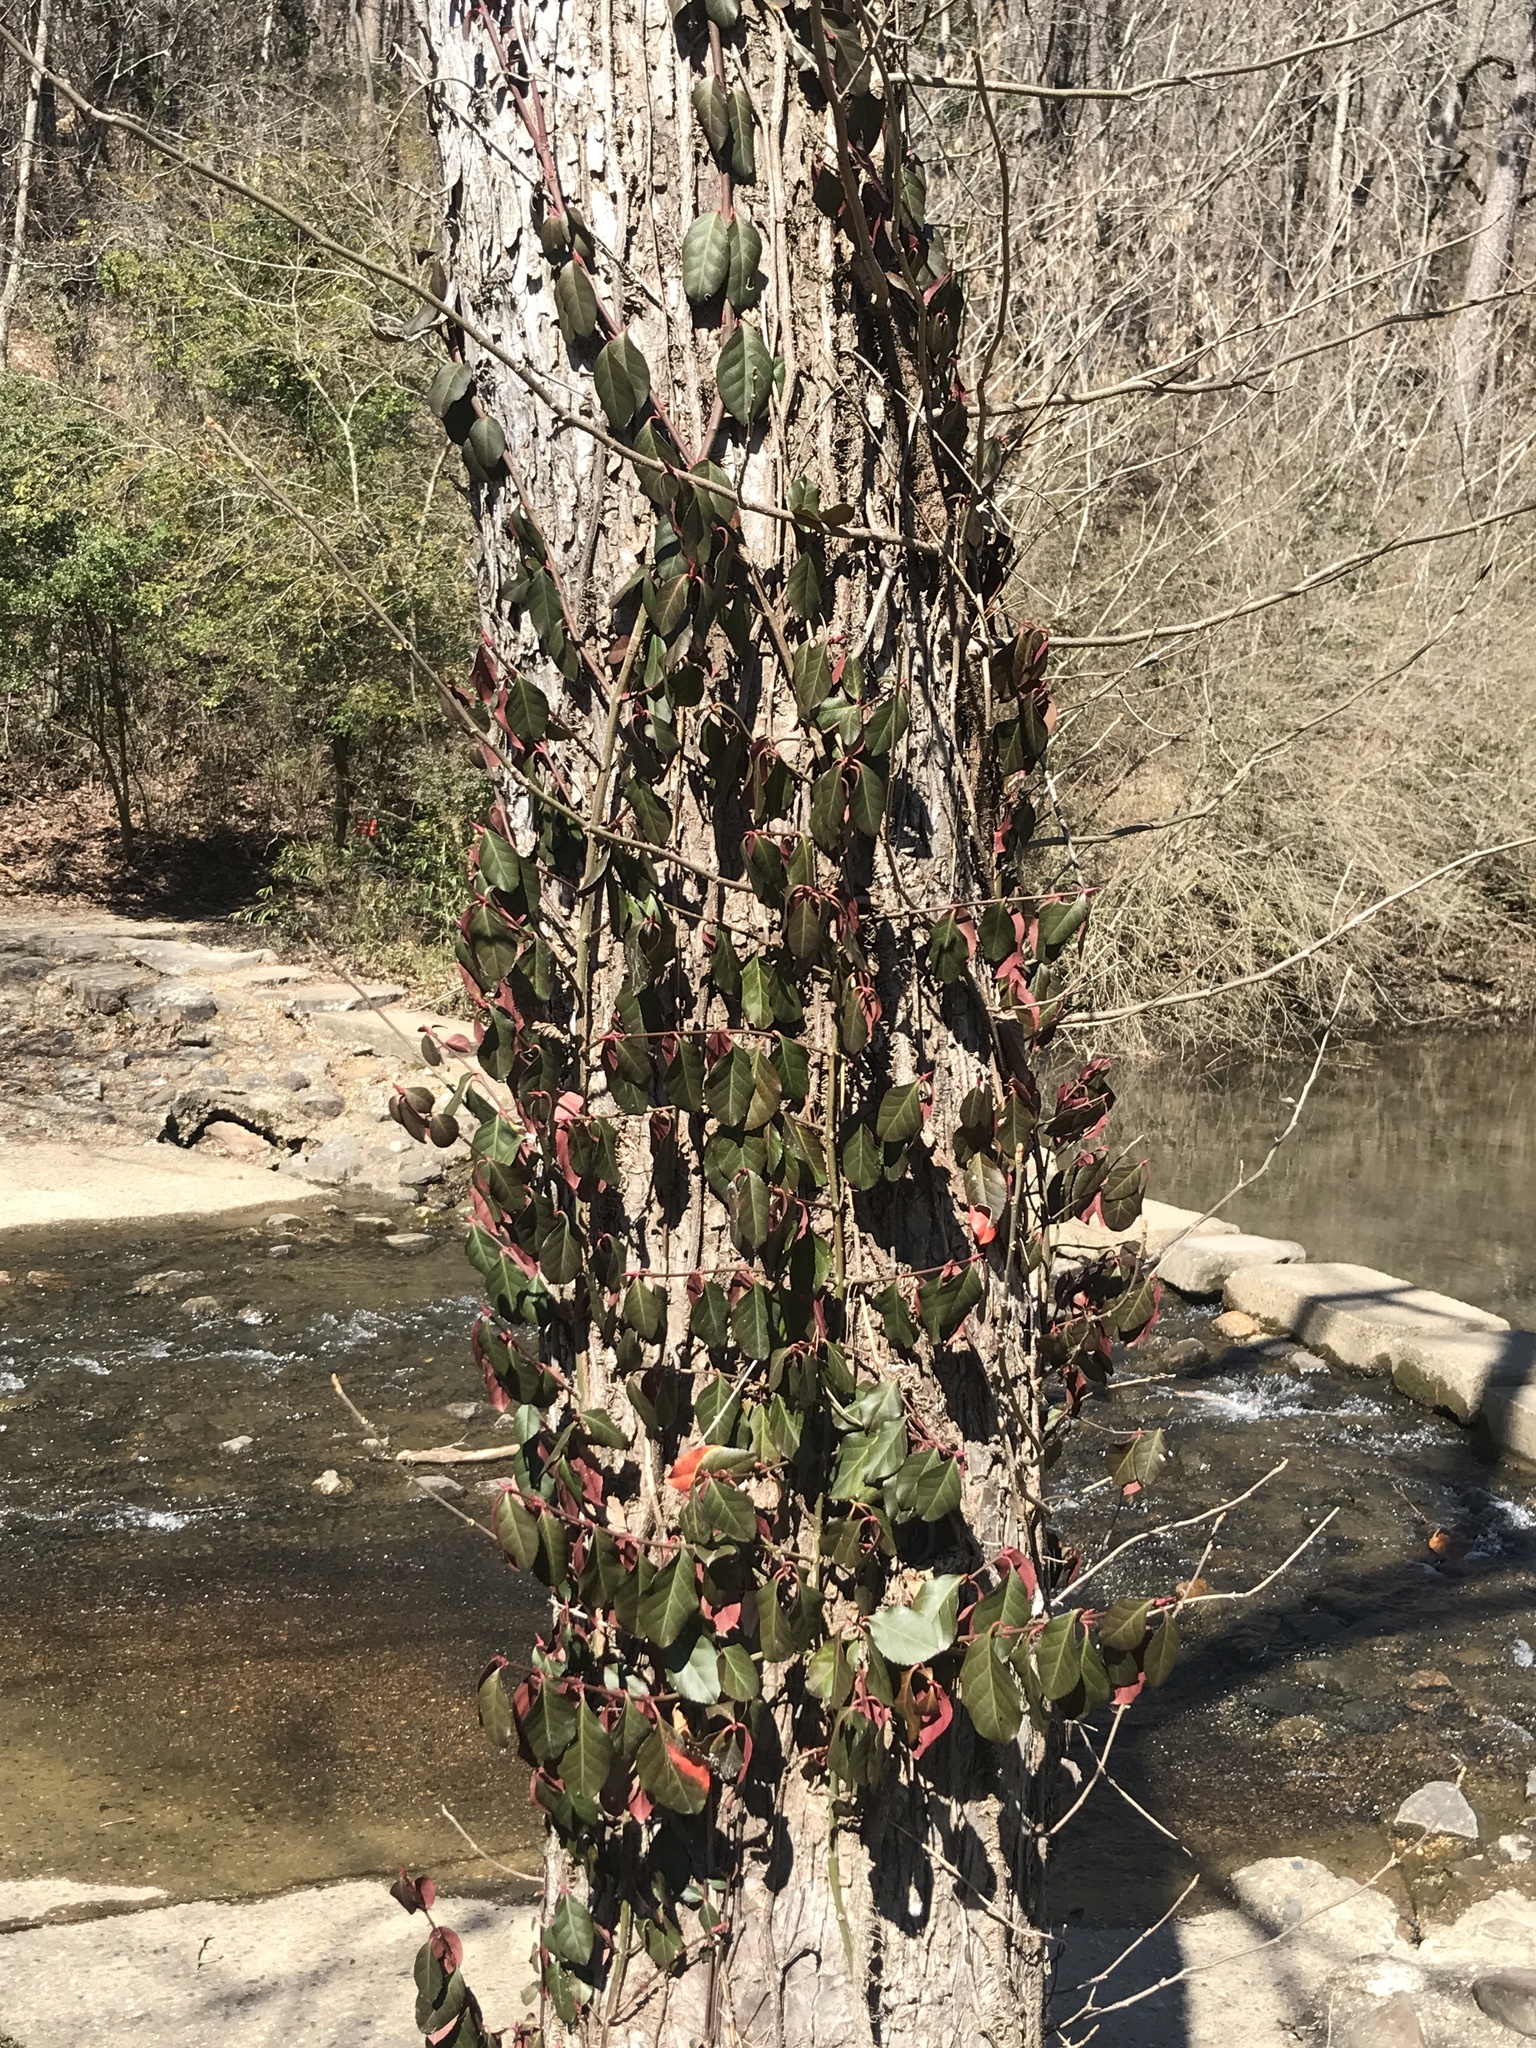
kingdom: Plantae
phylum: Tracheophyta
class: Magnoliopsida
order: Celastrales
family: Celastraceae
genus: Euonymus
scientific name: Euonymus fortunei
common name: Climbing euonymus
